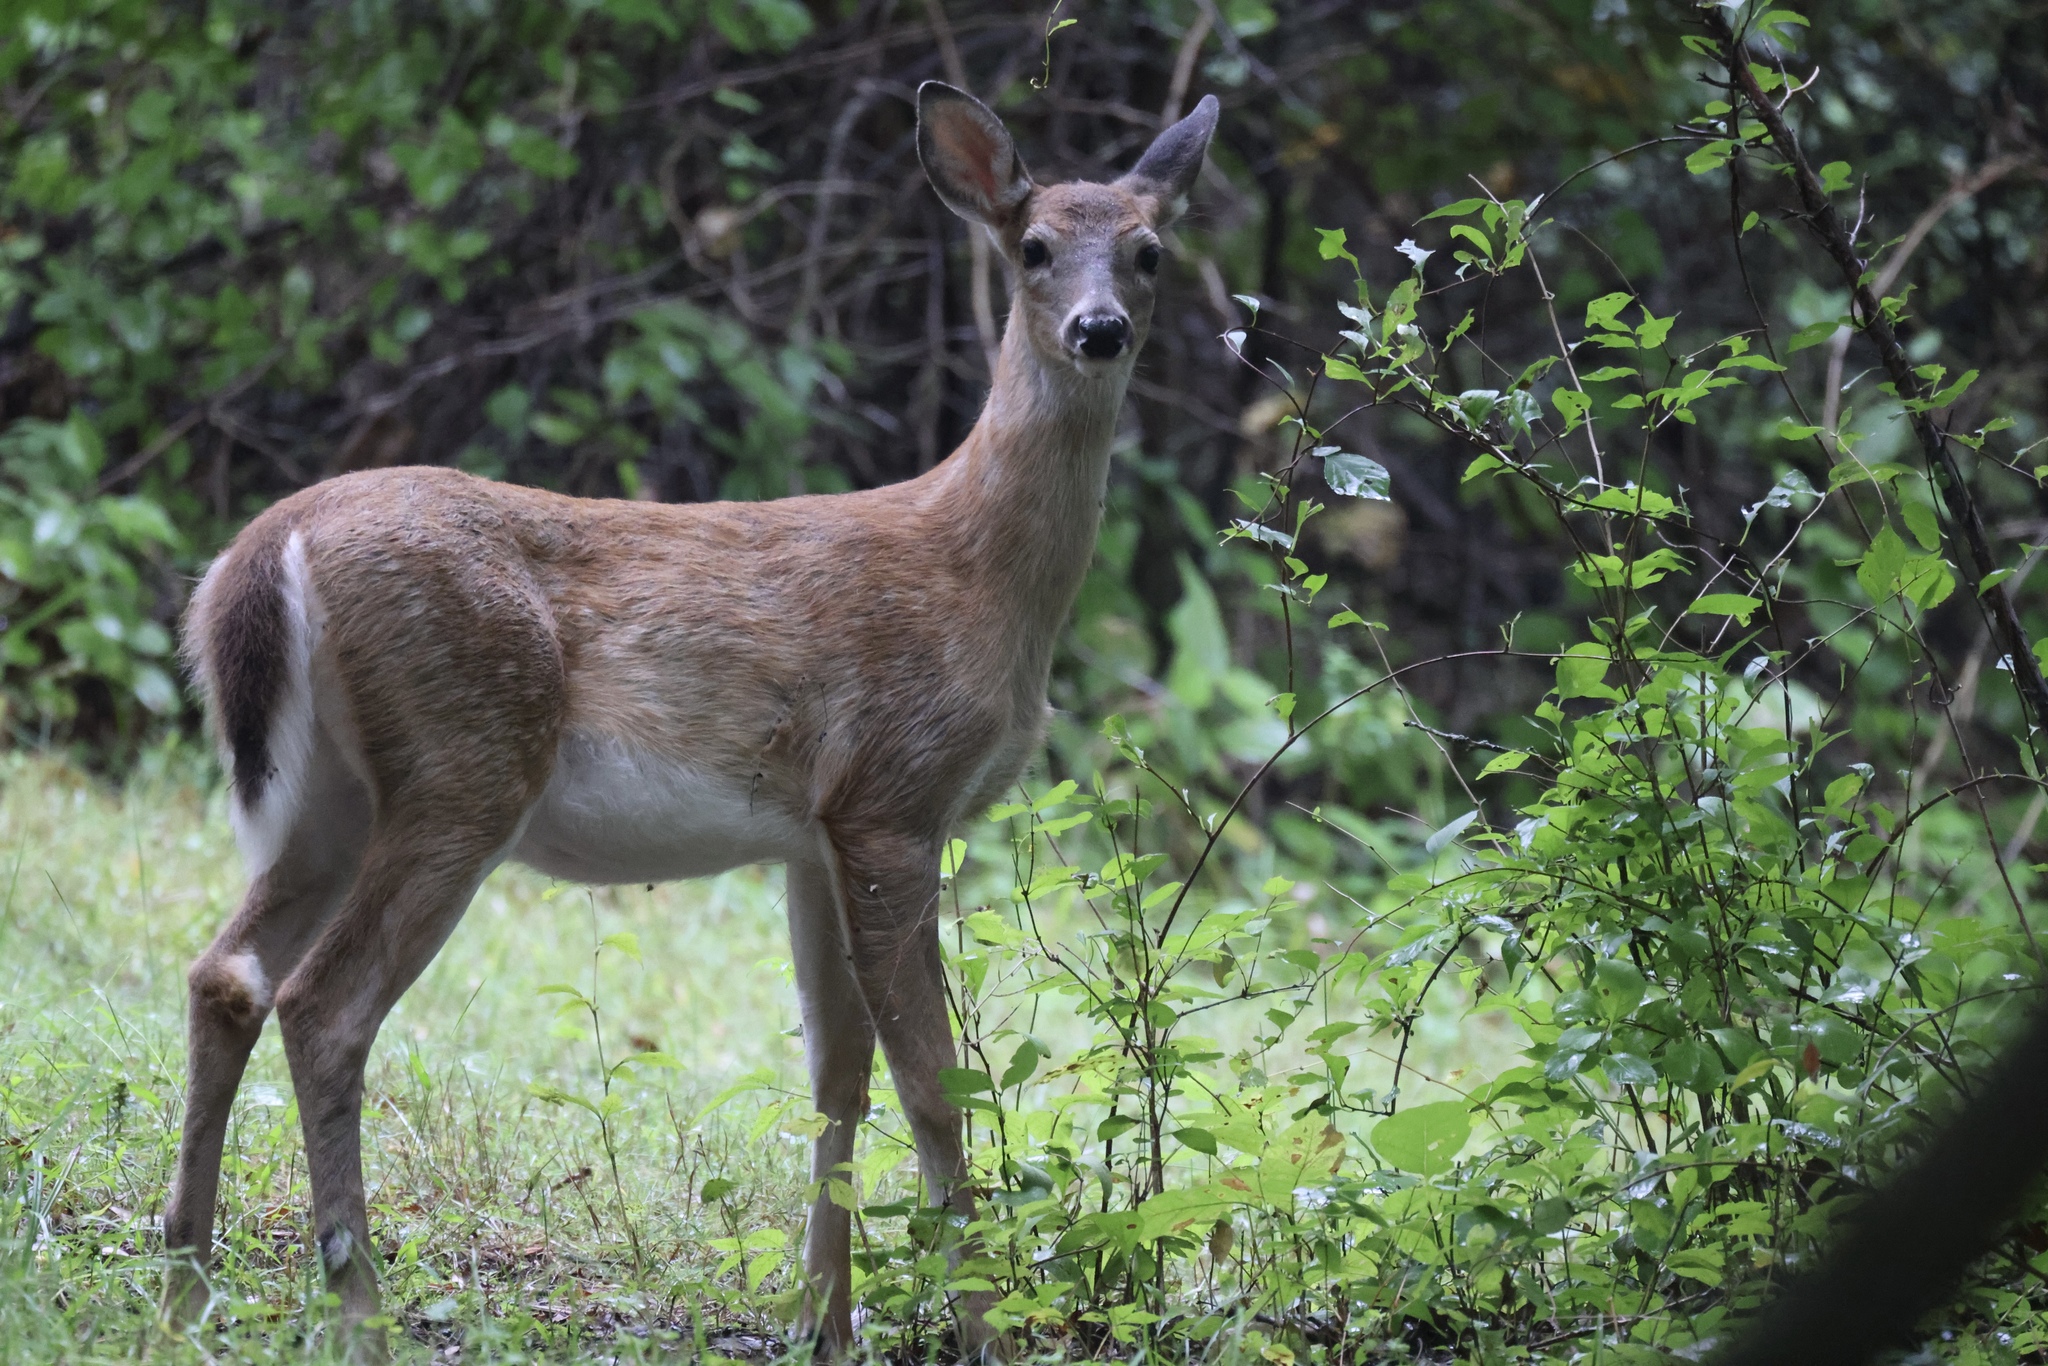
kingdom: Animalia
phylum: Chordata
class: Mammalia
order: Artiodactyla
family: Cervidae
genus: Odocoileus
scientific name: Odocoileus virginianus
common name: White-tailed deer
